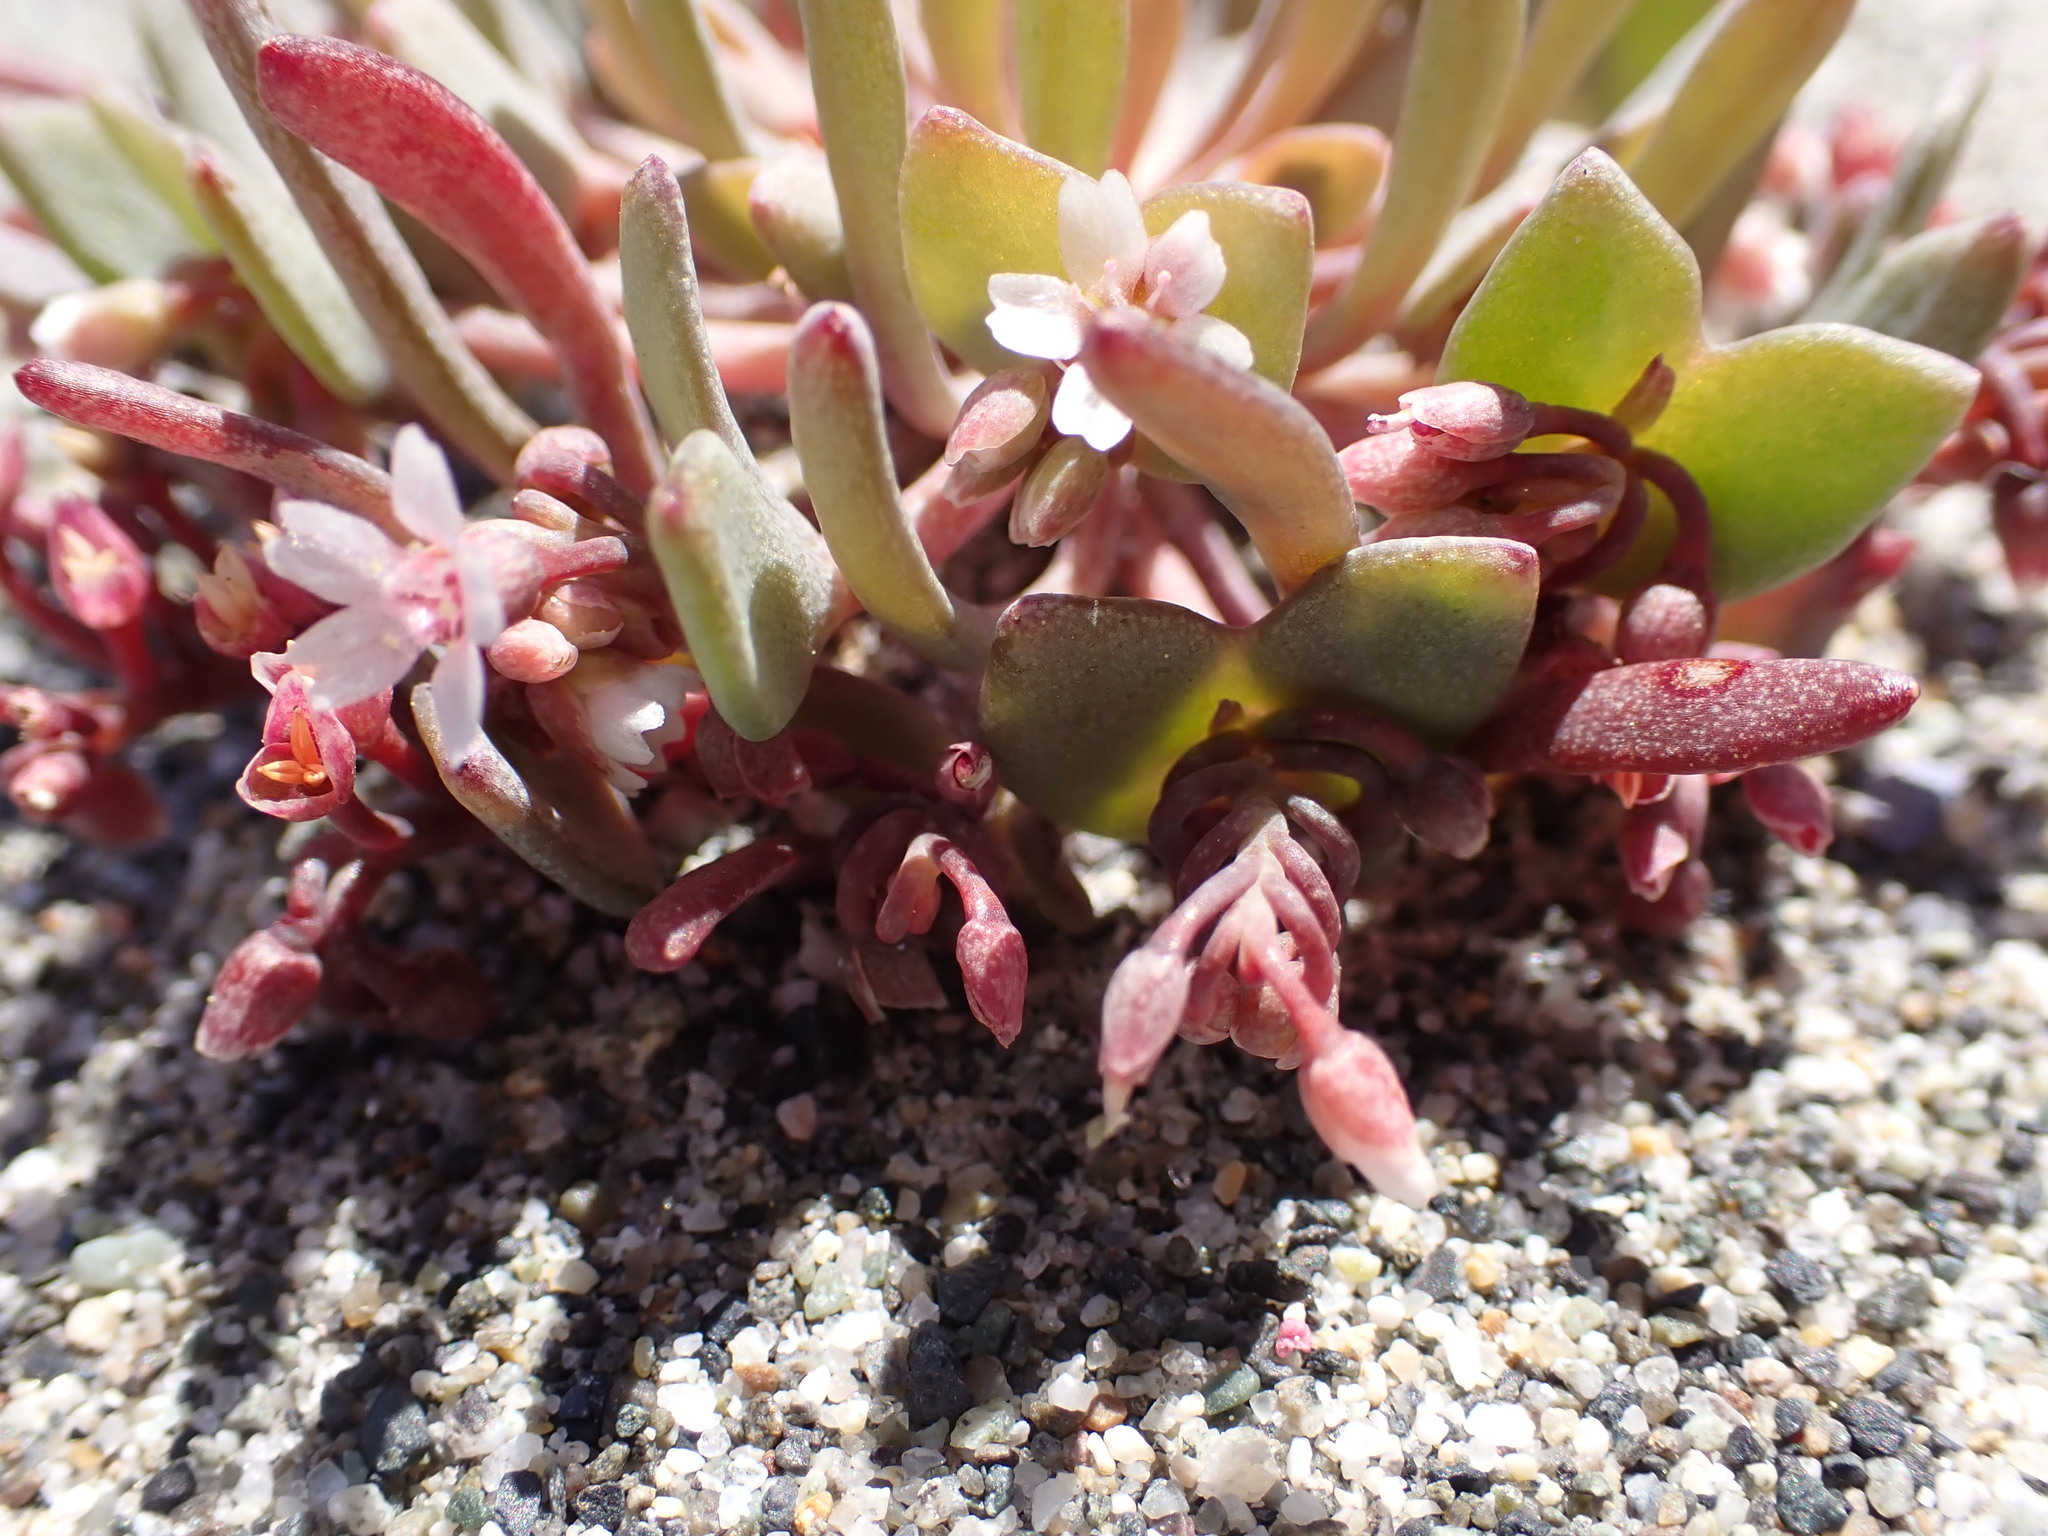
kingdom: Plantae
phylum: Tracheophyta
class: Magnoliopsida
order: Caryophyllales
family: Montiaceae
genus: Claytonia
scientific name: Claytonia exigua
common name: Pale spring beauty
